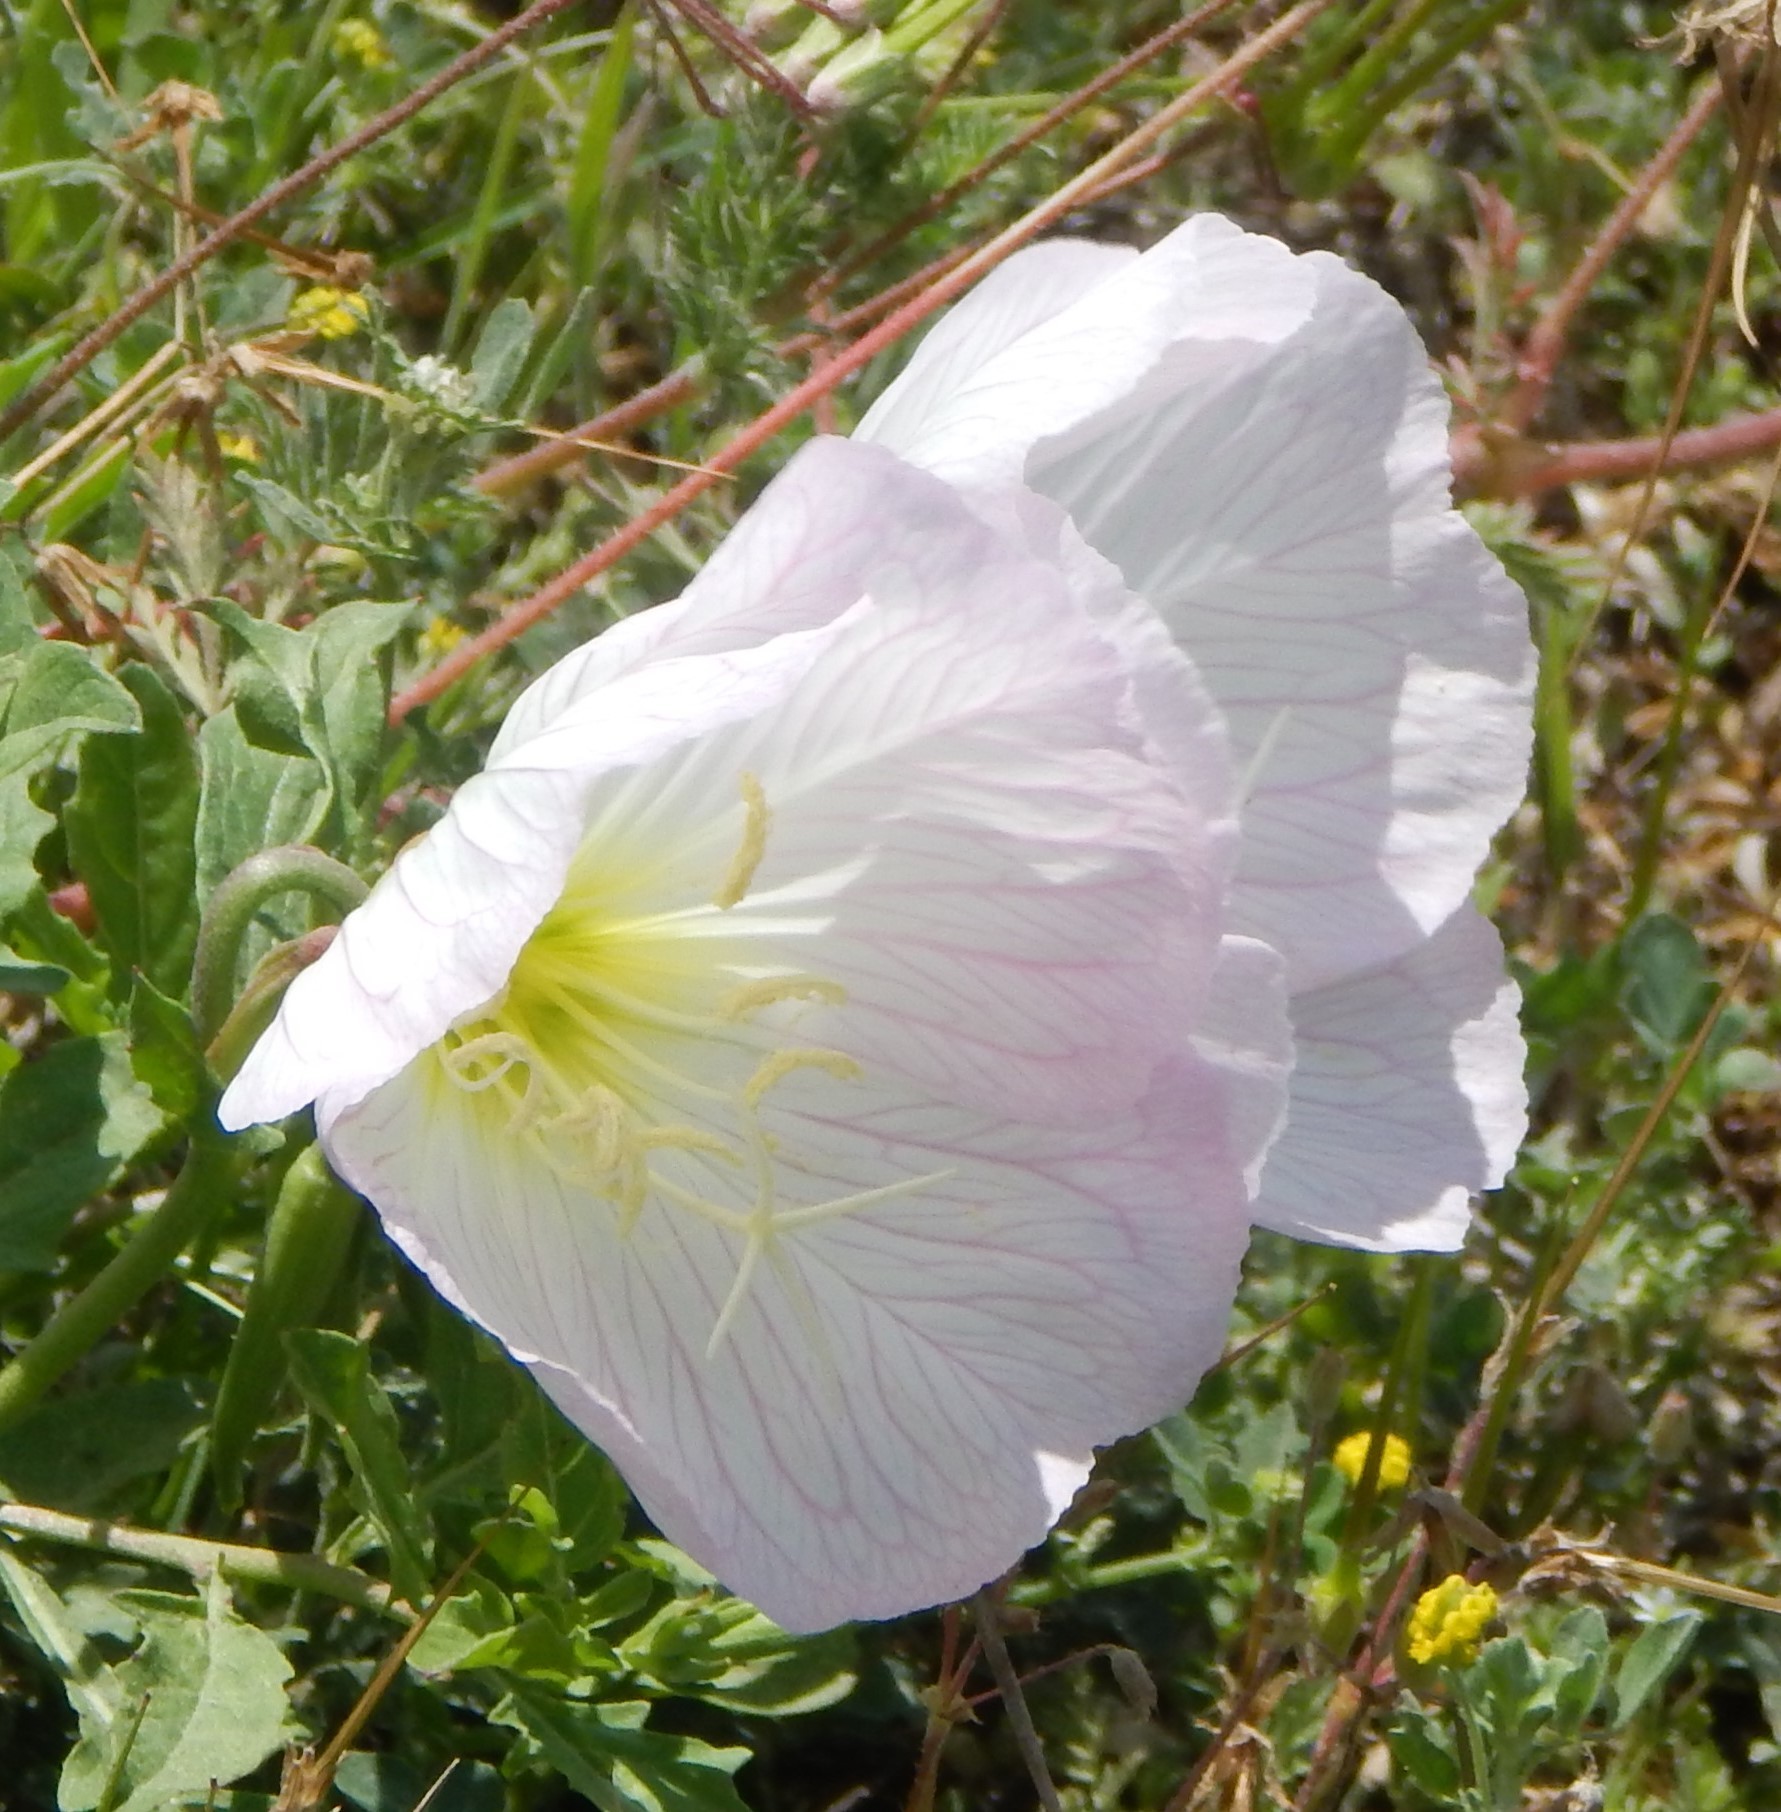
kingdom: Plantae
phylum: Tracheophyta
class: Magnoliopsida
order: Myrtales
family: Onagraceae
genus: Oenothera
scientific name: Oenothera speciosa
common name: White evening-primrose
